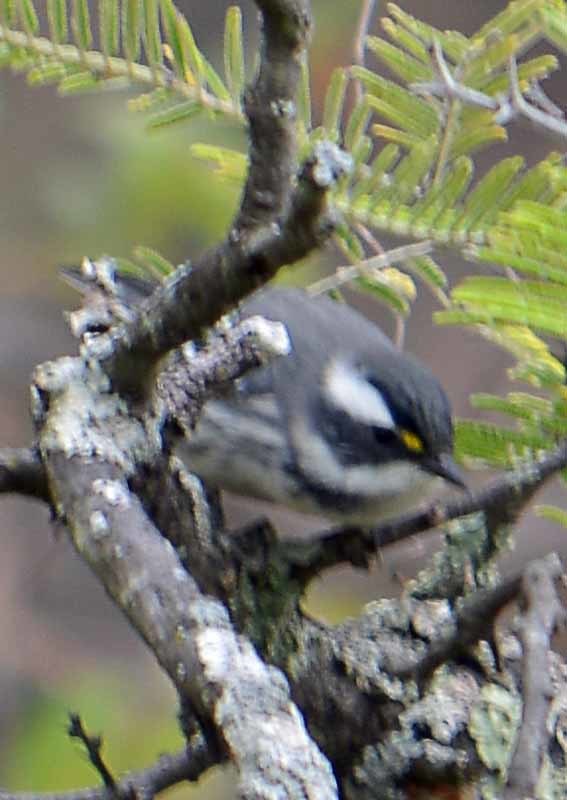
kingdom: Animalia
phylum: Chordata
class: Aves
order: Passeriformes
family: Parulidae
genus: Setophaga
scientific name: Setophaga nigrescens
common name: Black-throated gray warbler
